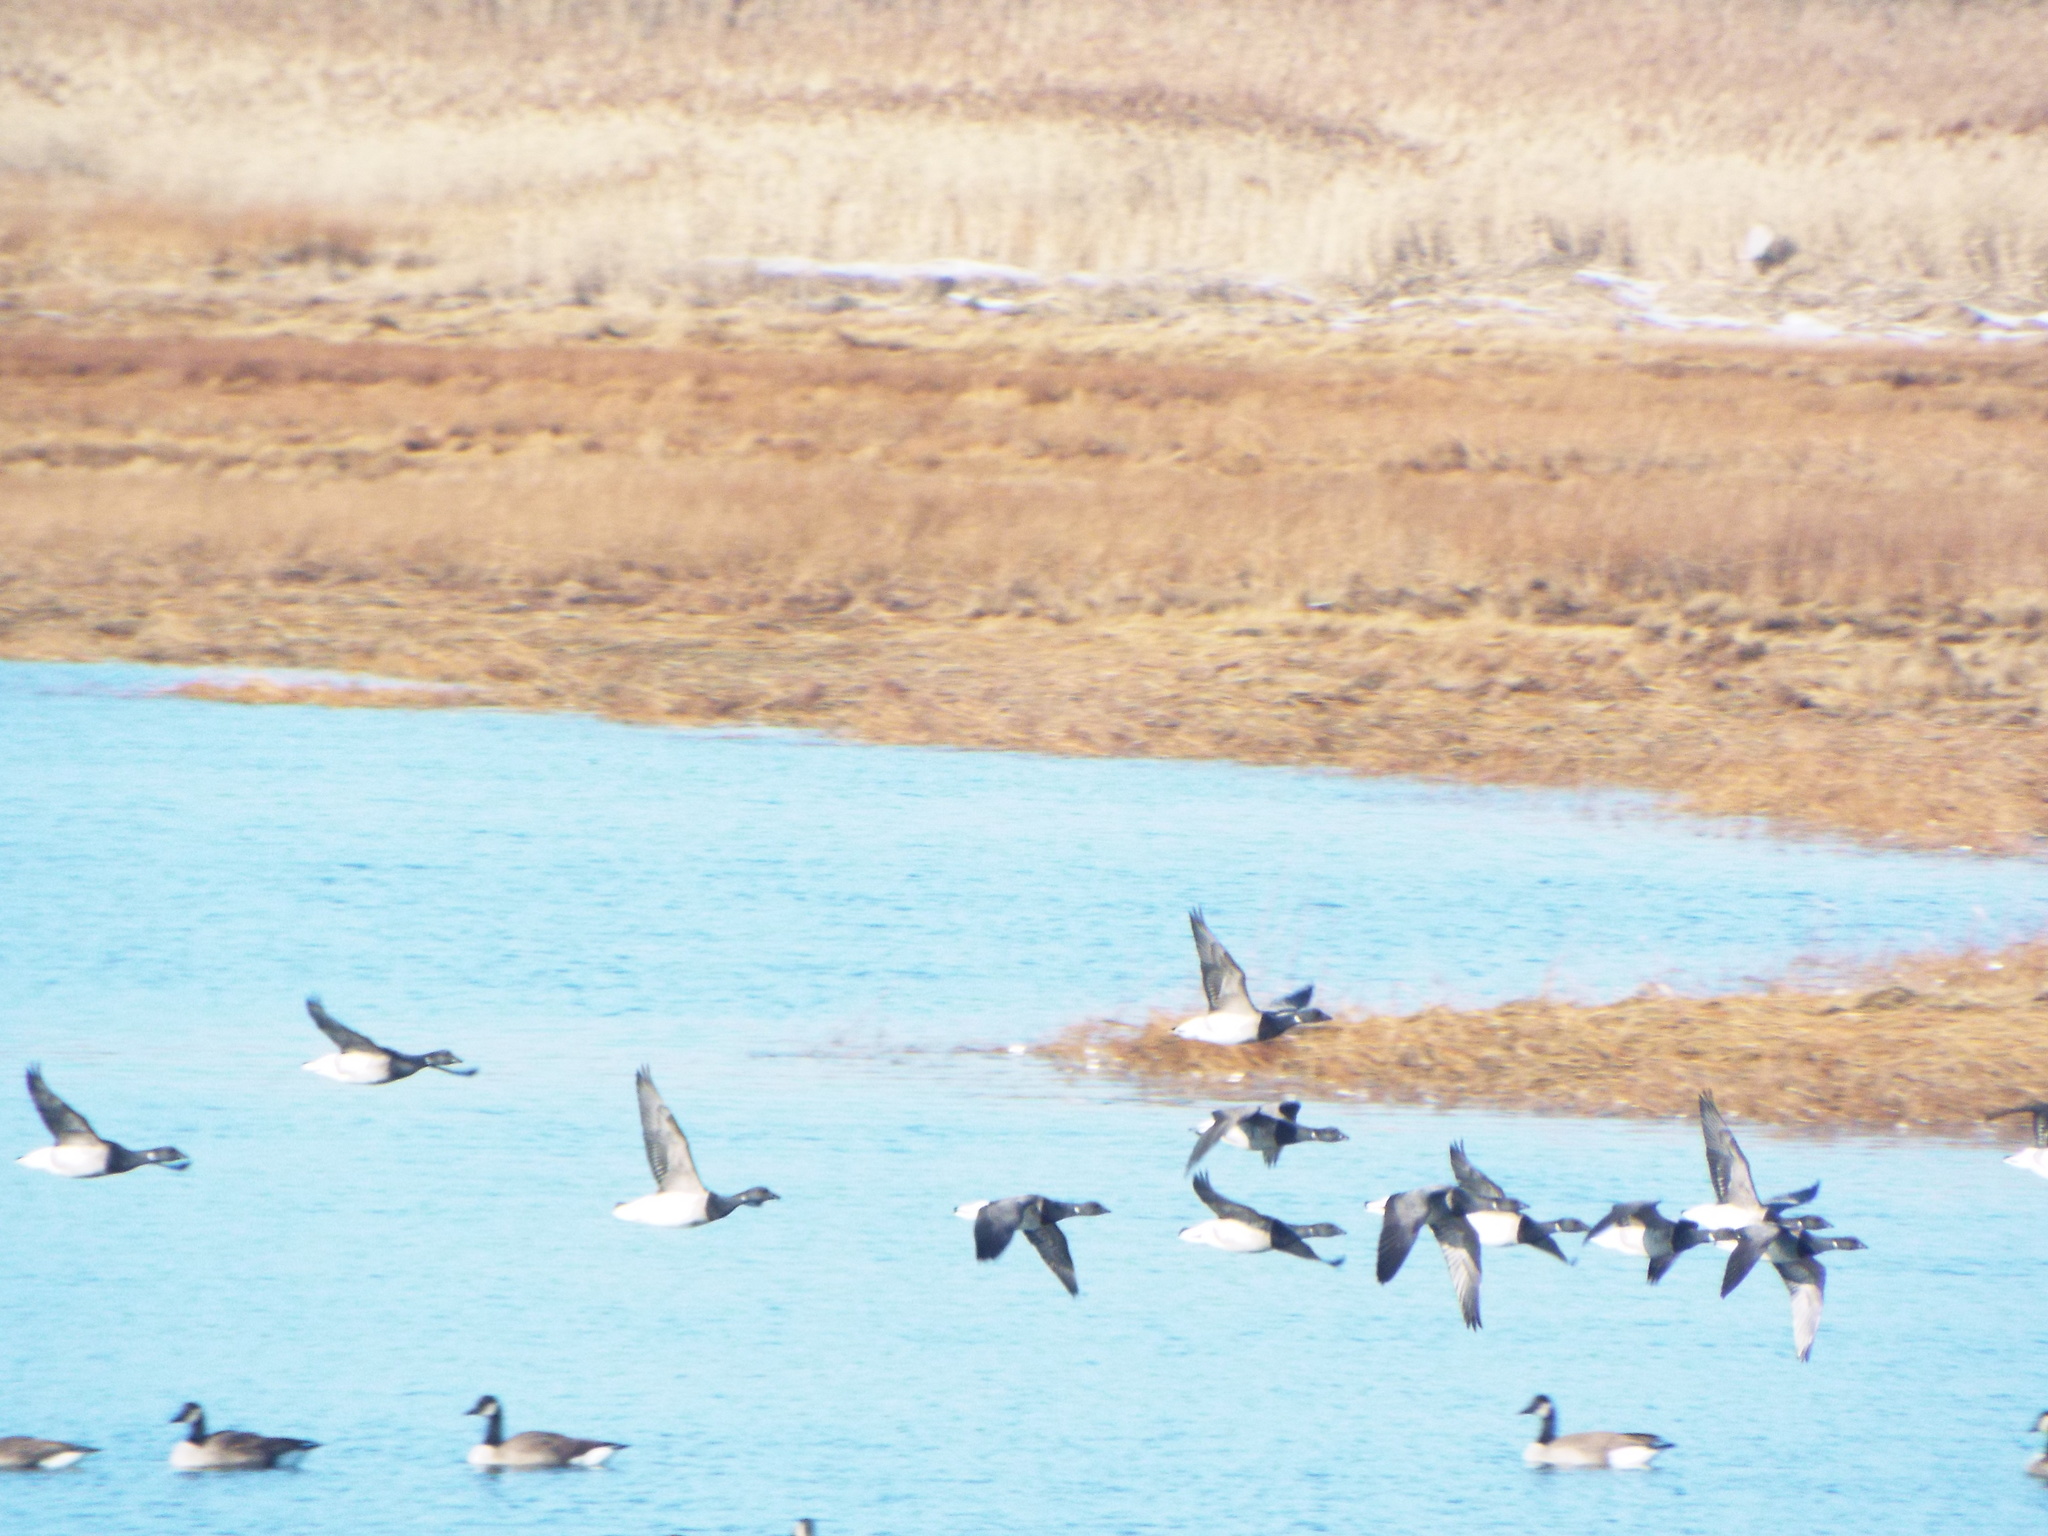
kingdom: Animalia
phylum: Chordata
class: Aves
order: Anseriformes
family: Anatidae
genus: Branta
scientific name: Branta bernicla
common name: Brant goose
